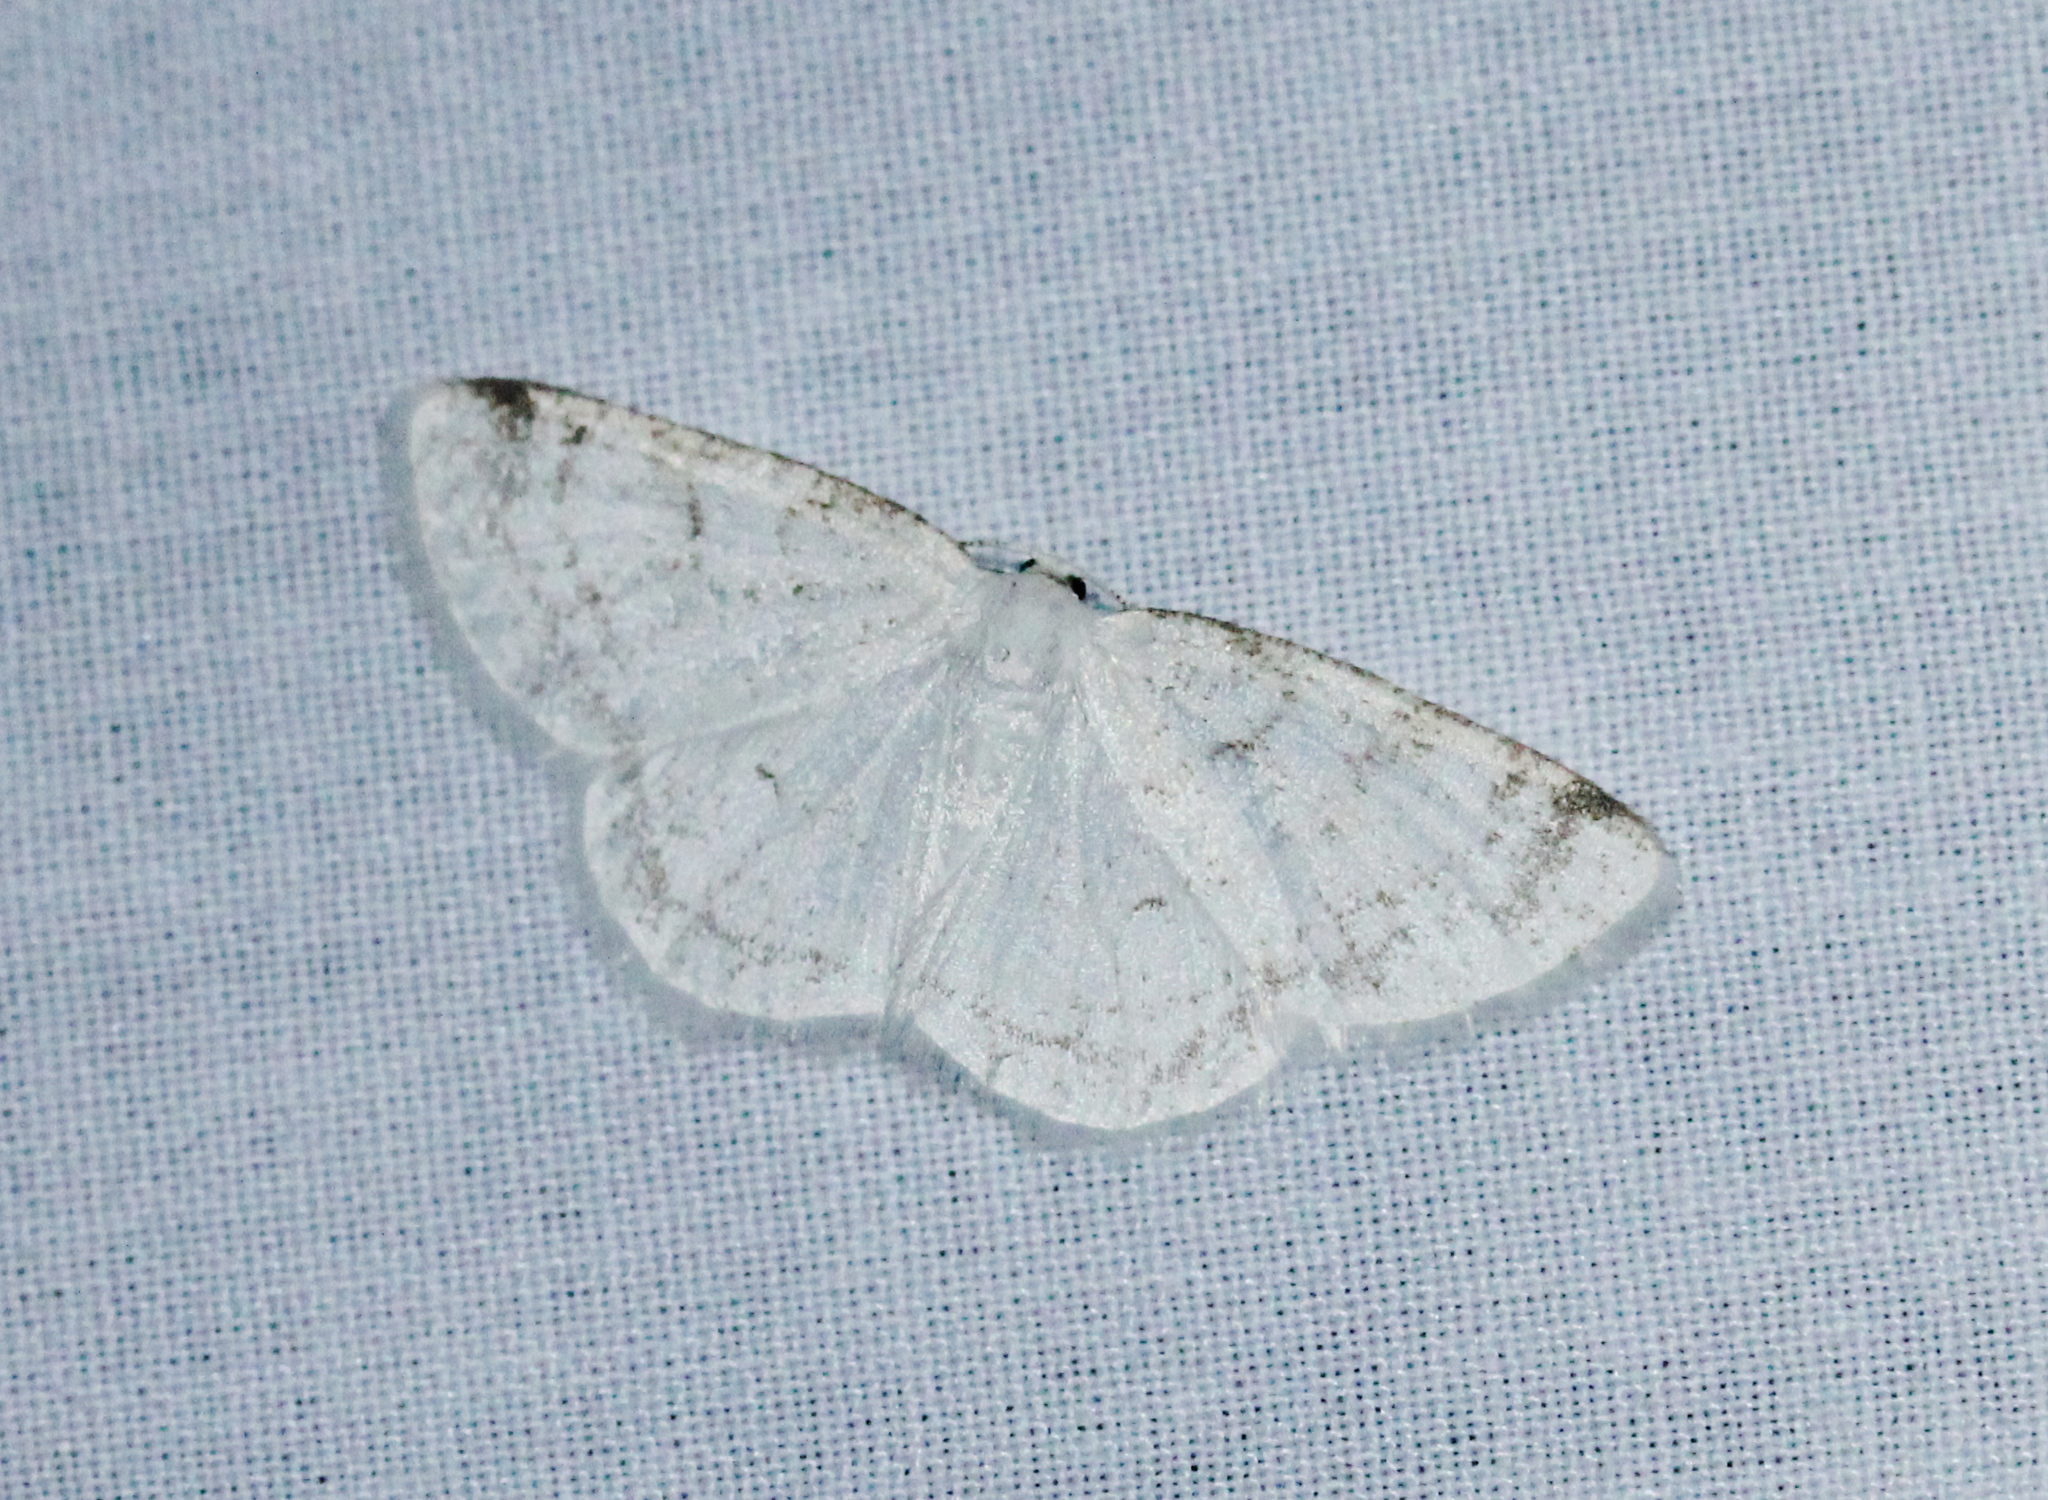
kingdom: Animalia
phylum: Arthropoda
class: Insecta
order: Lepidoptera
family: Geometridae
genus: Protitame
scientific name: Protitame virginalis
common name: Virgin moth
